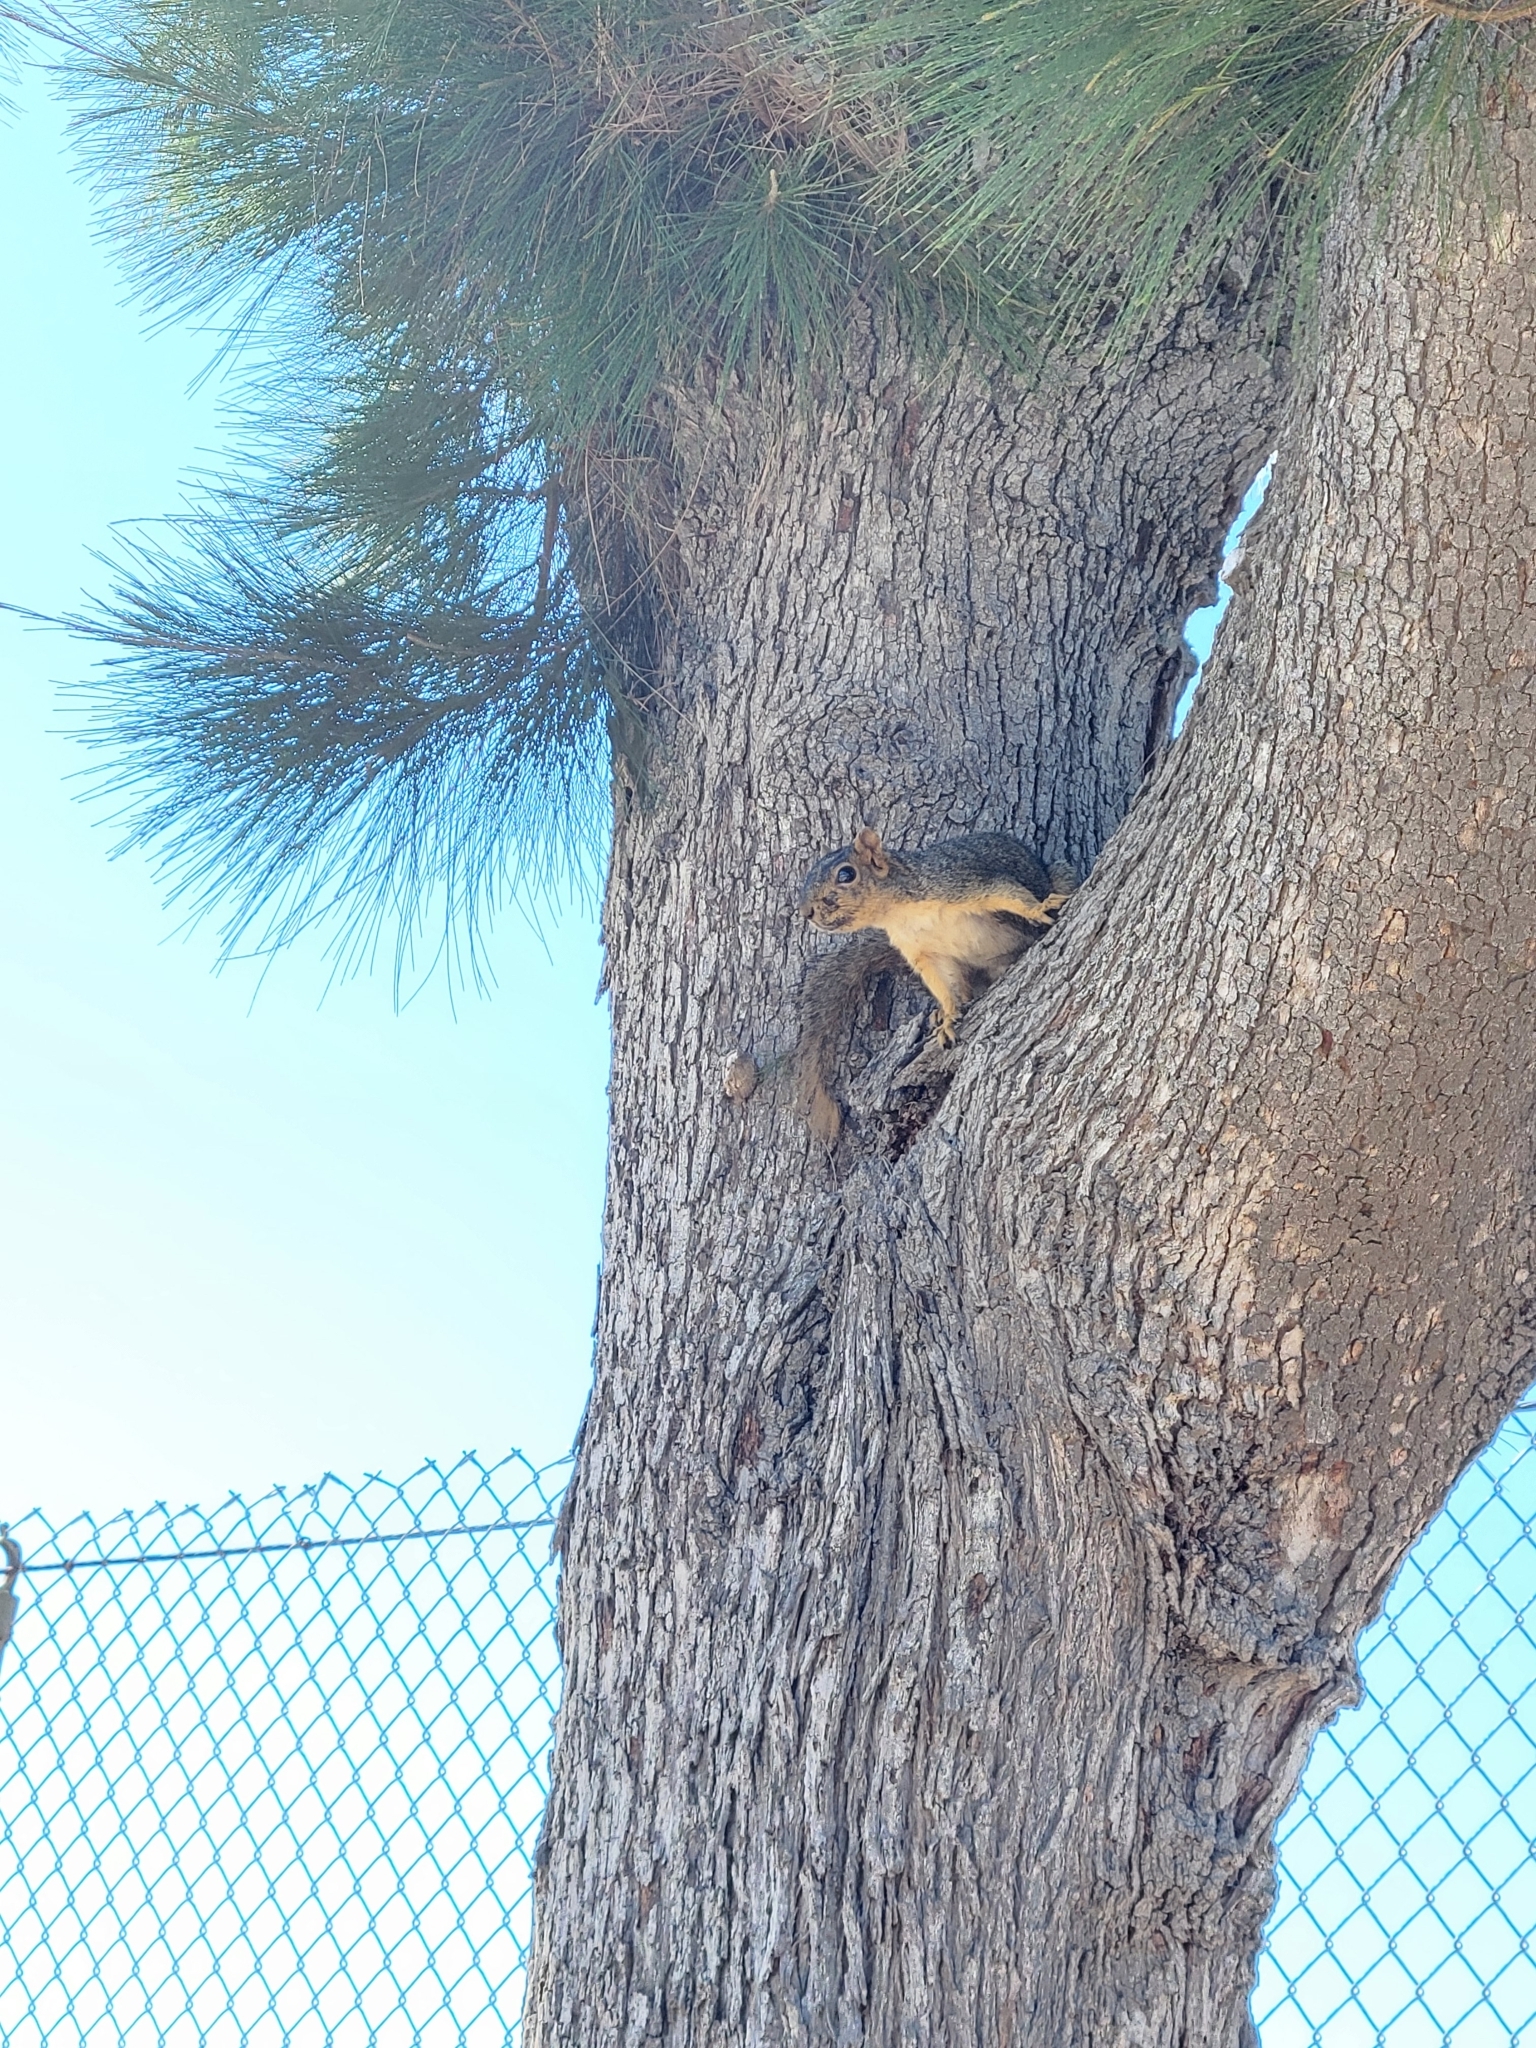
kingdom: Animalia
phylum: Chordata
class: Mammalia
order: Rodentia
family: Sciuridae
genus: Sciurus
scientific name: Sciurus niger
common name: Fox squirrel
